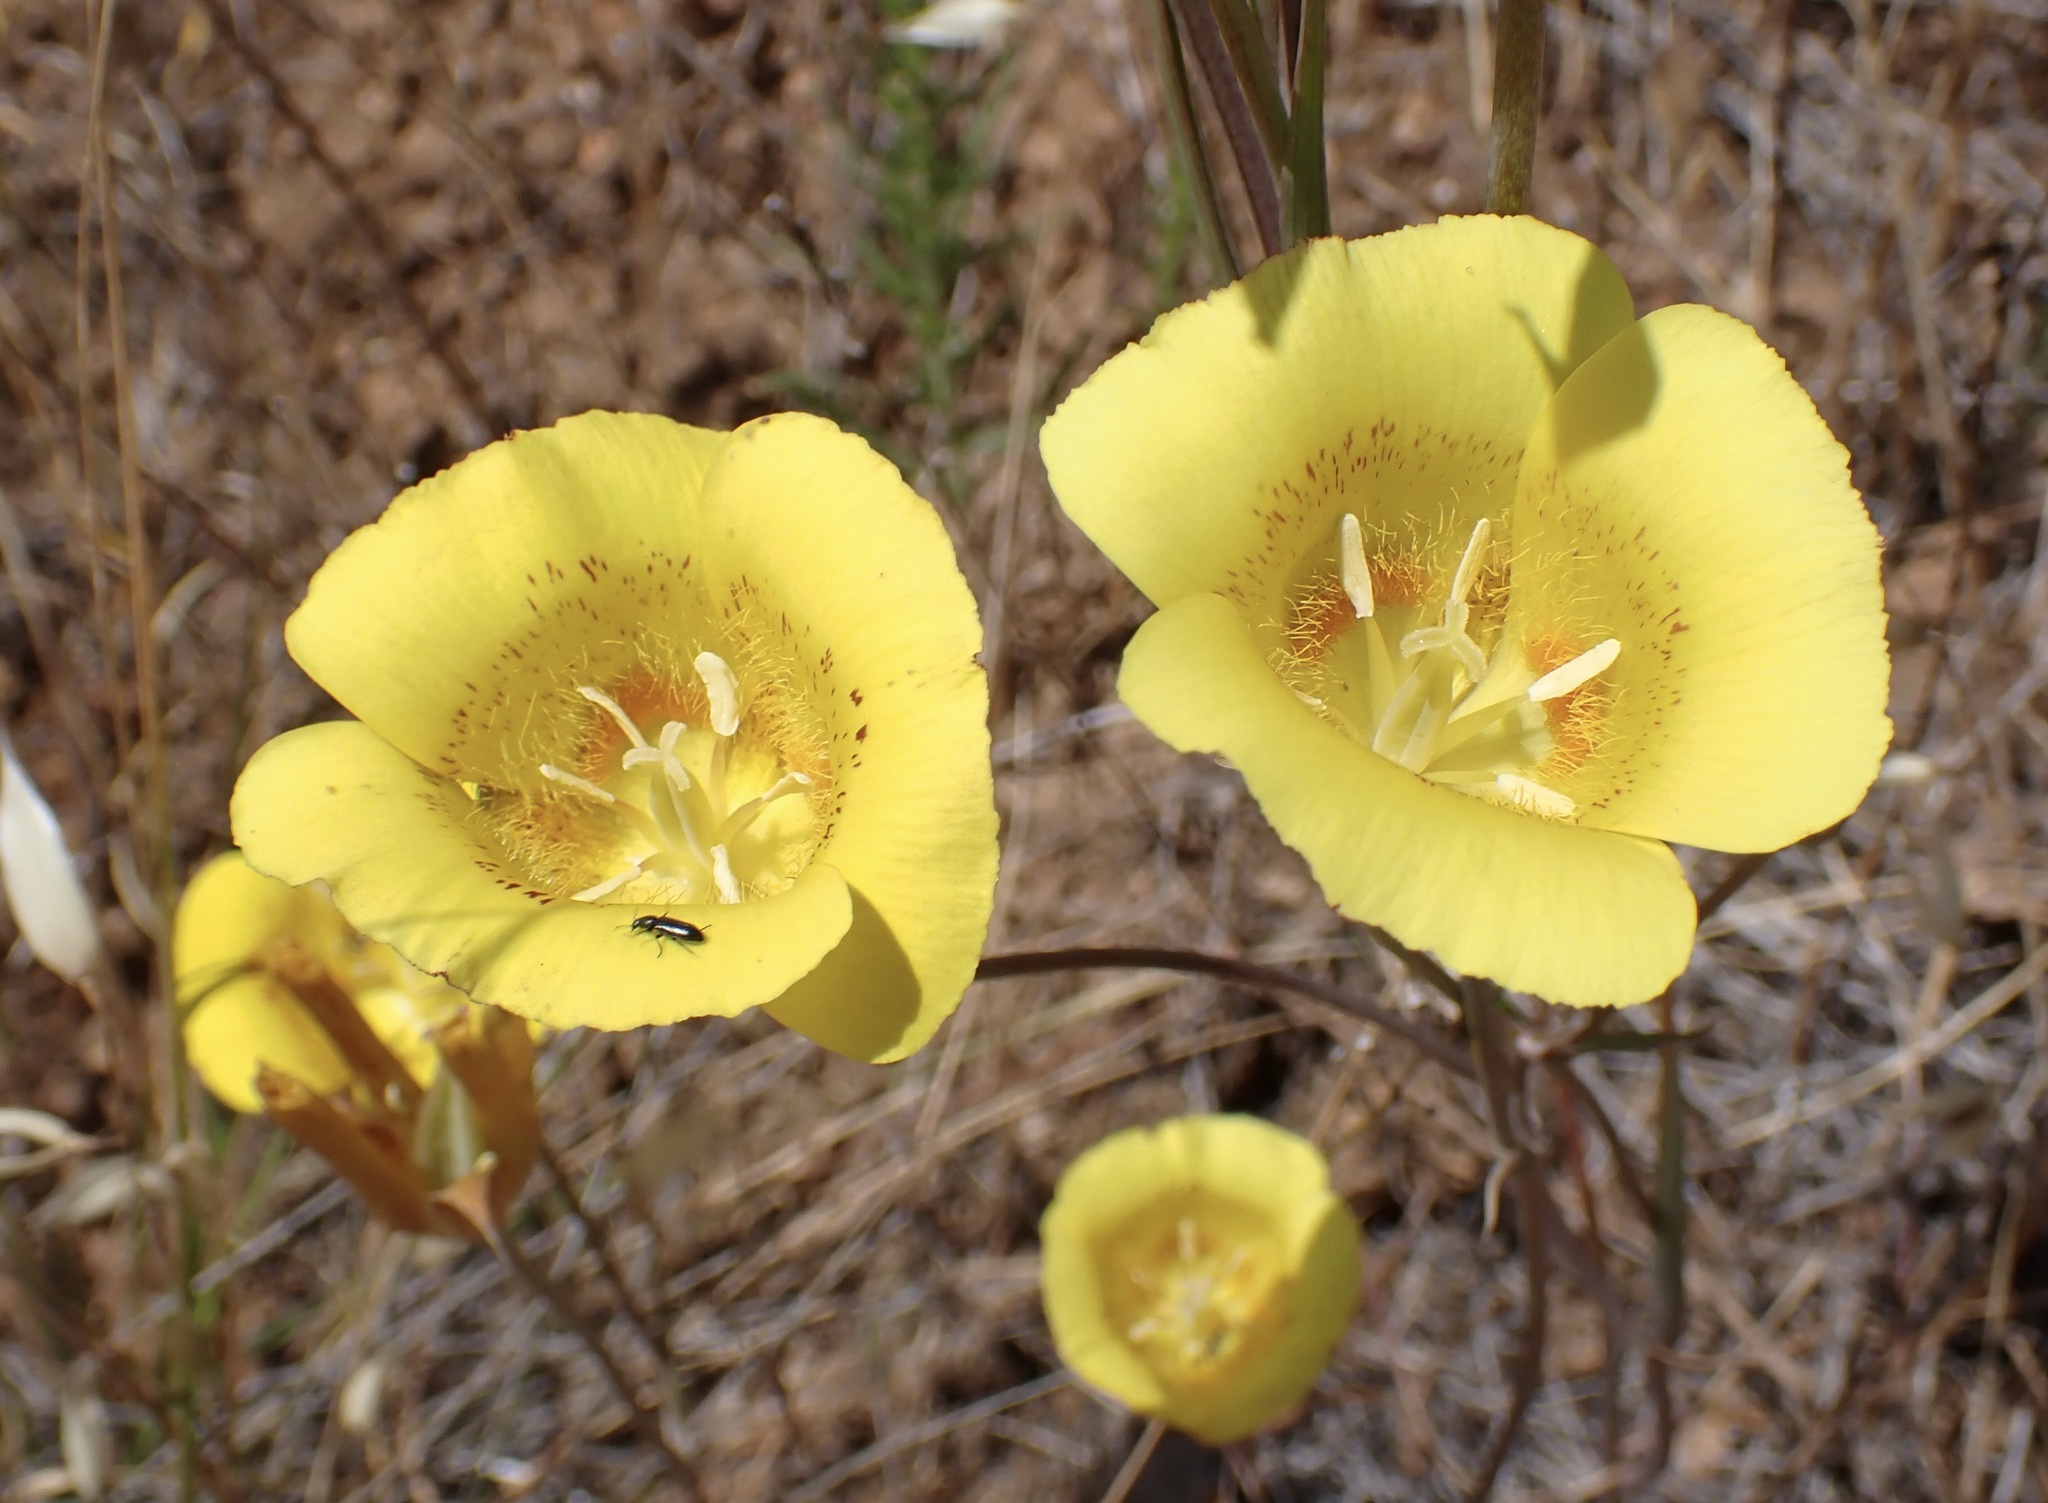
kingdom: Plantae
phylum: Tracheophyta
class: Liliopsida
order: Liliales
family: Liliaceae
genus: Calochortus
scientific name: Calochortus luteus
